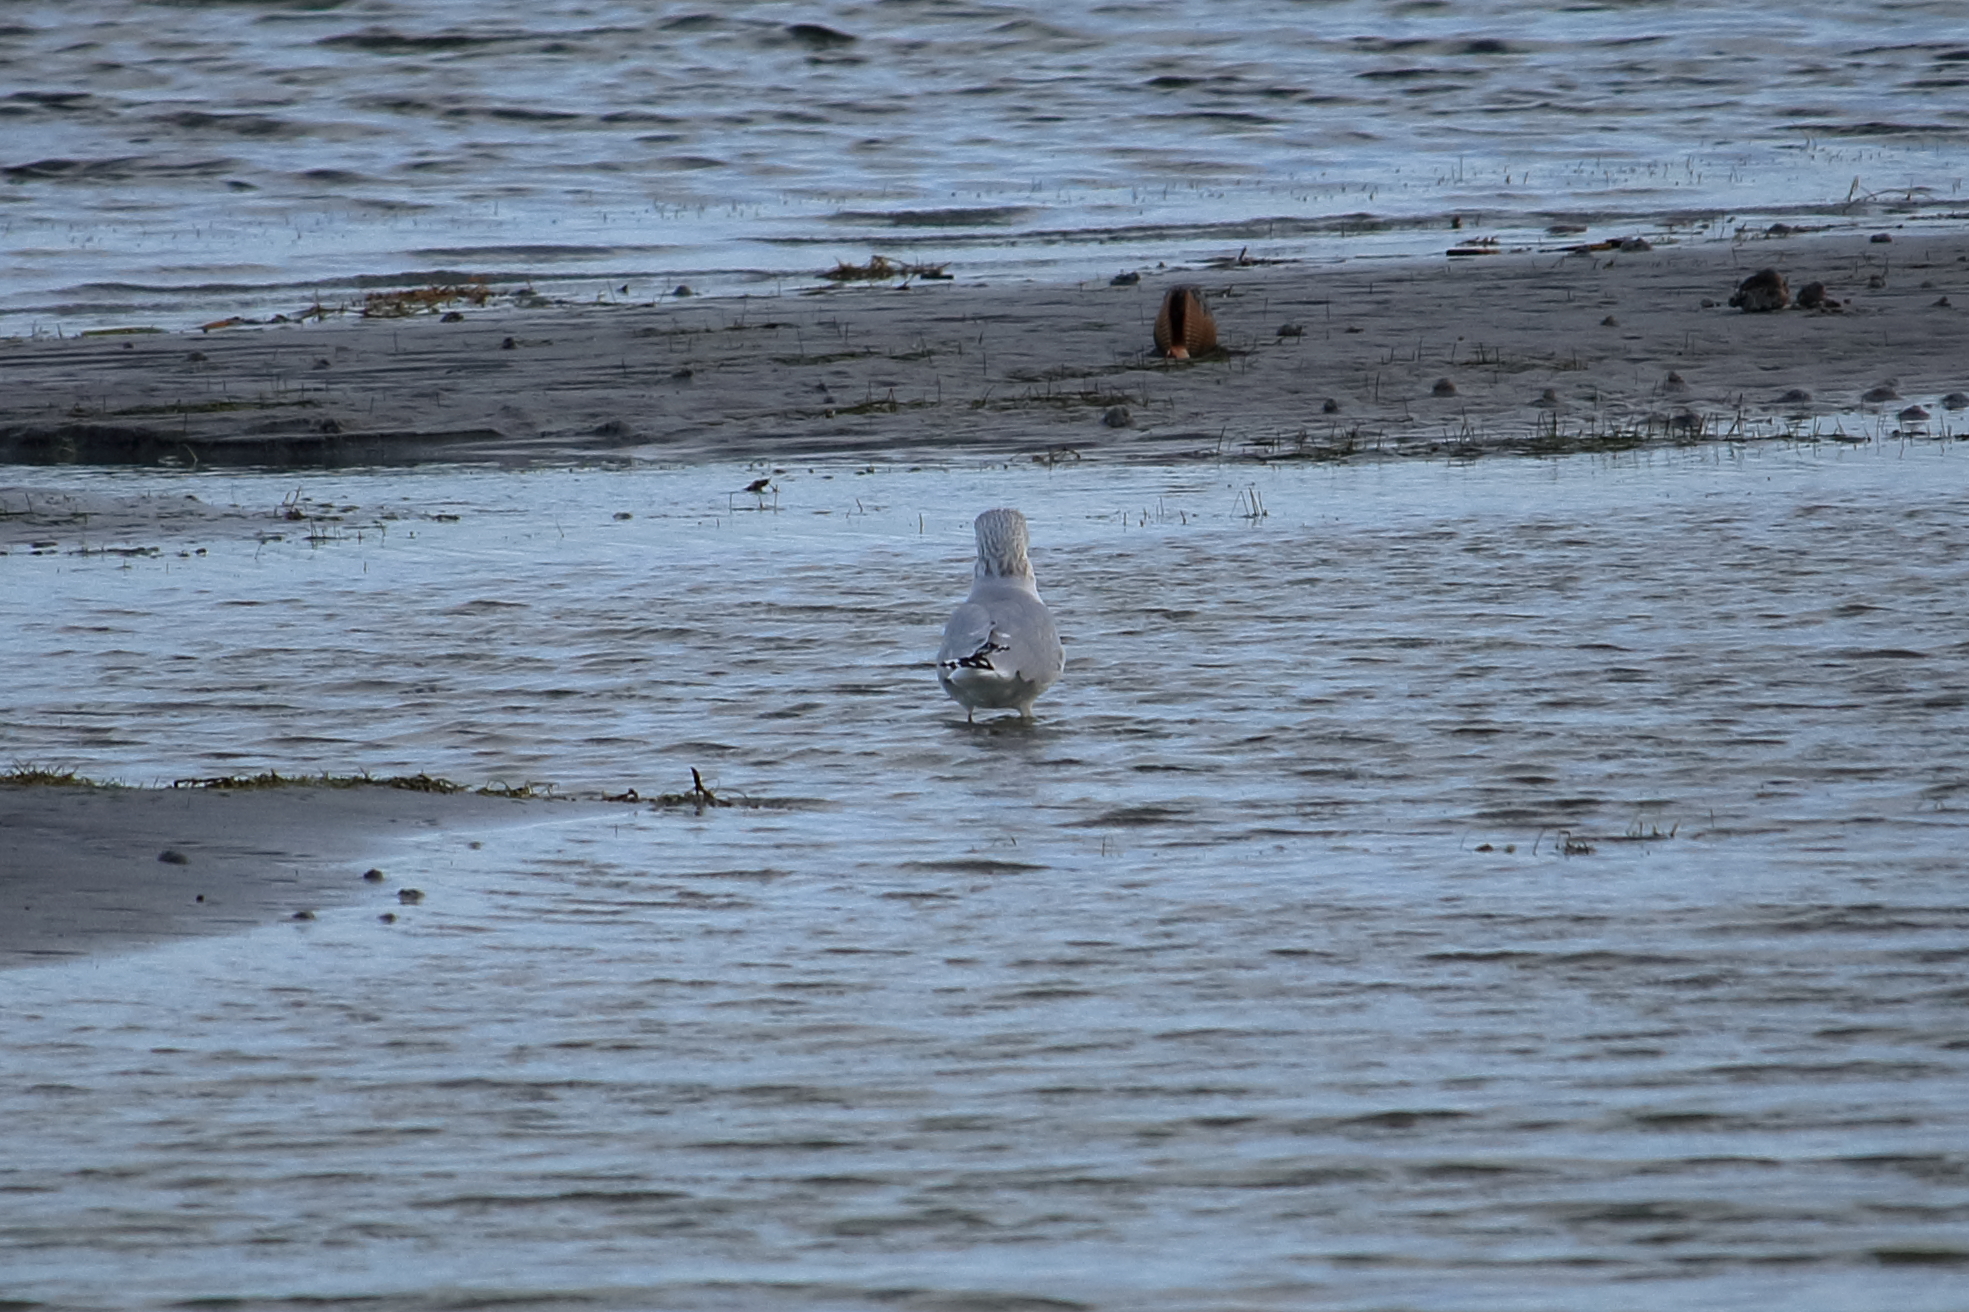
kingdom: Animalia
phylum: Chordata
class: Aves
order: Charadriiformes
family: Laridae
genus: Larus
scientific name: Larus smithsonianus
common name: American herring gull
